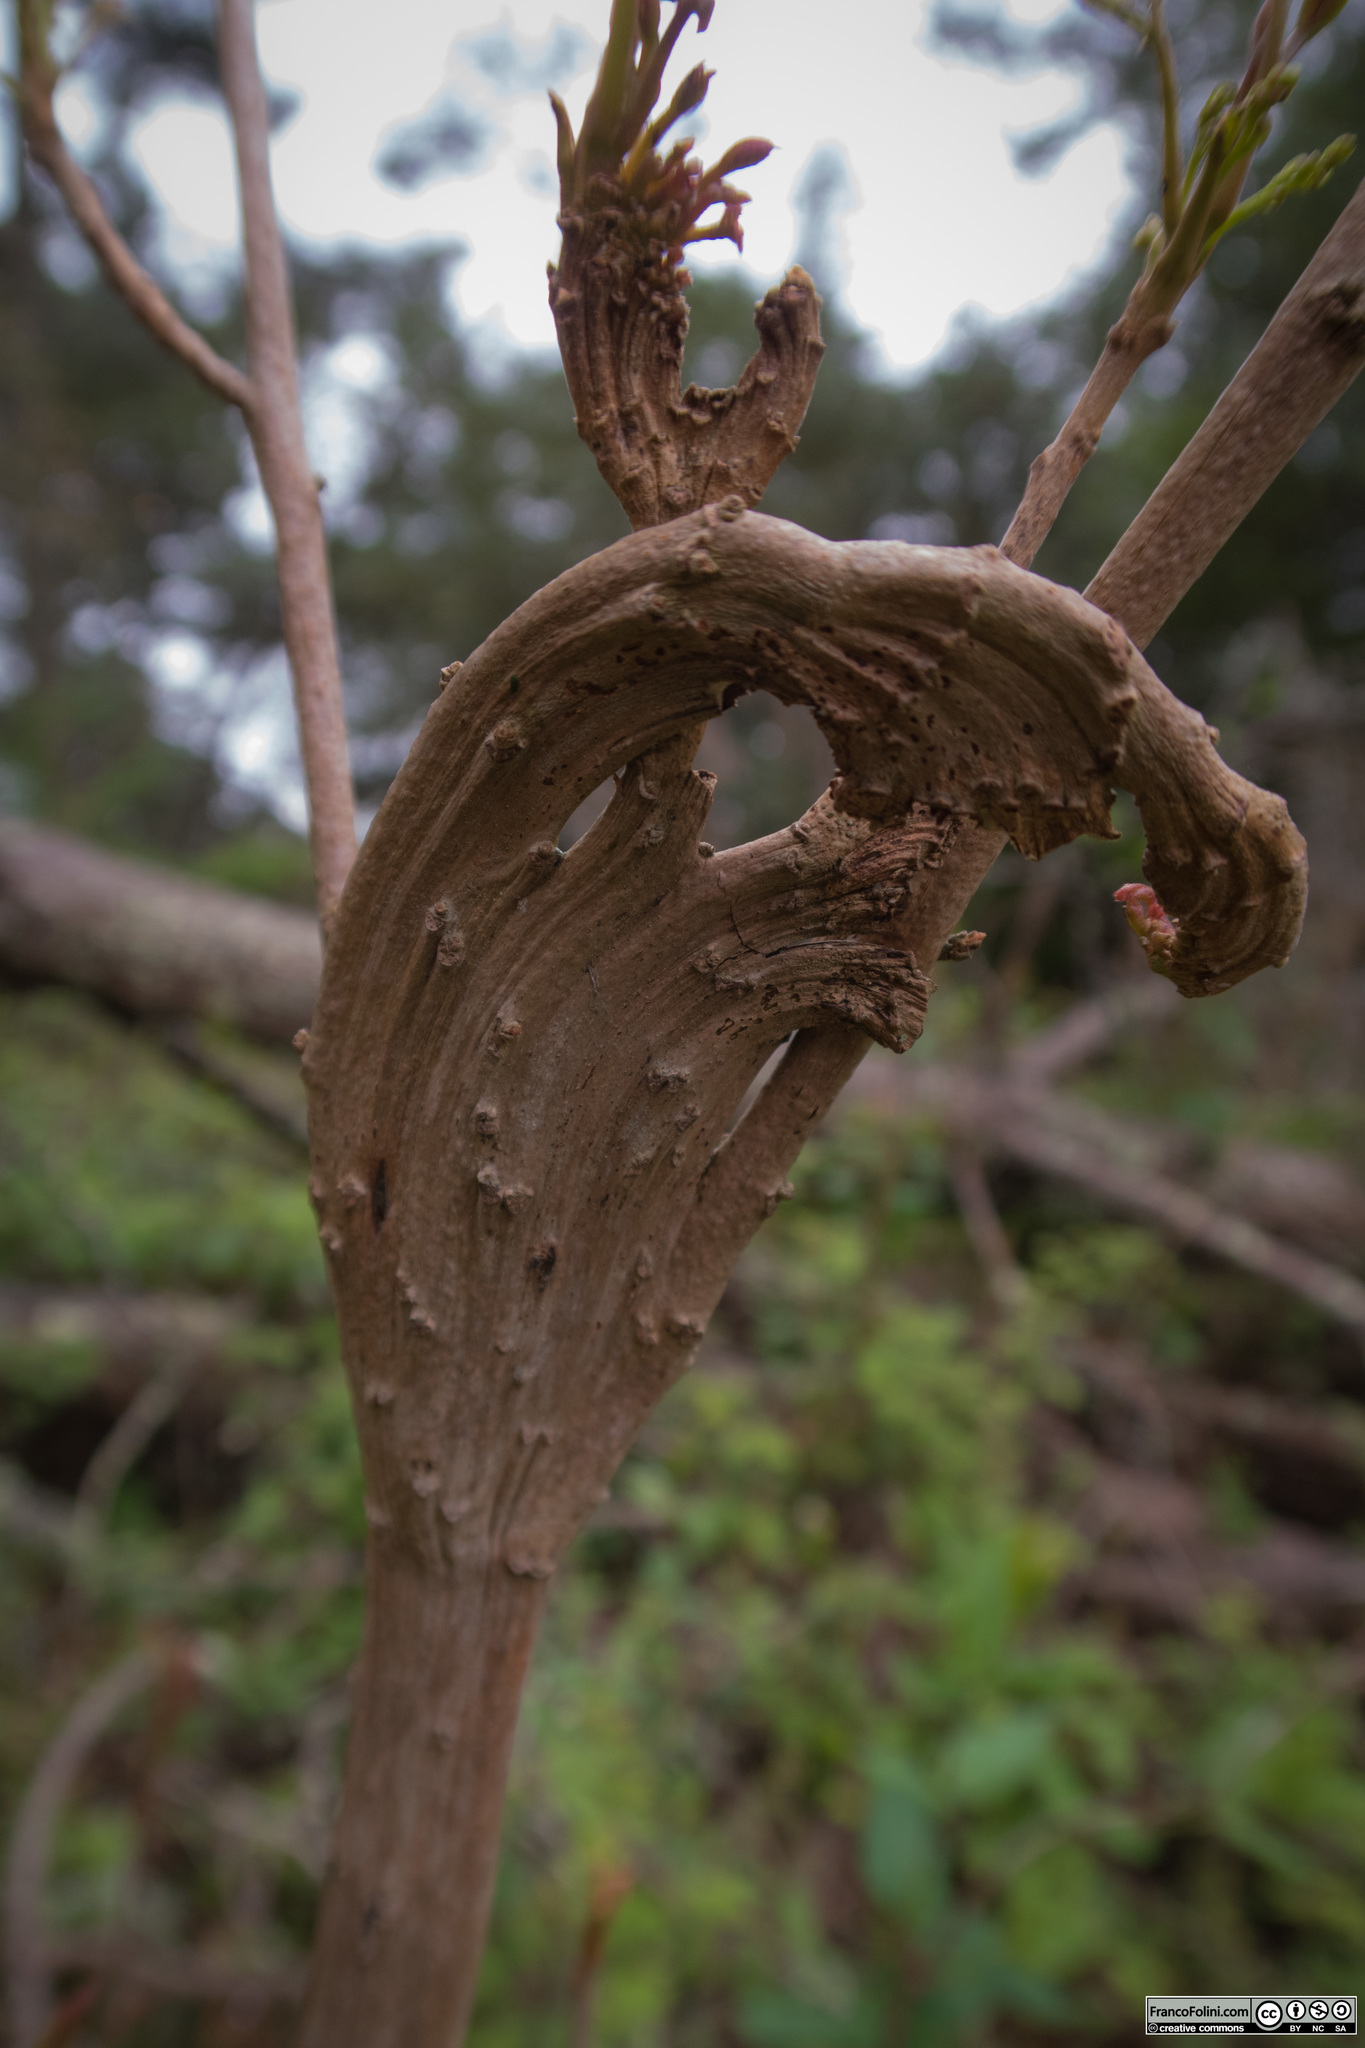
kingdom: Plantae
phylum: Tracheophyta
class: Magnoliopsida
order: Sapindales
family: Anacardiaceae
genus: Toxicodendron
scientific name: Toxicodendron diversilobum
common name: Pacific poison-oak
